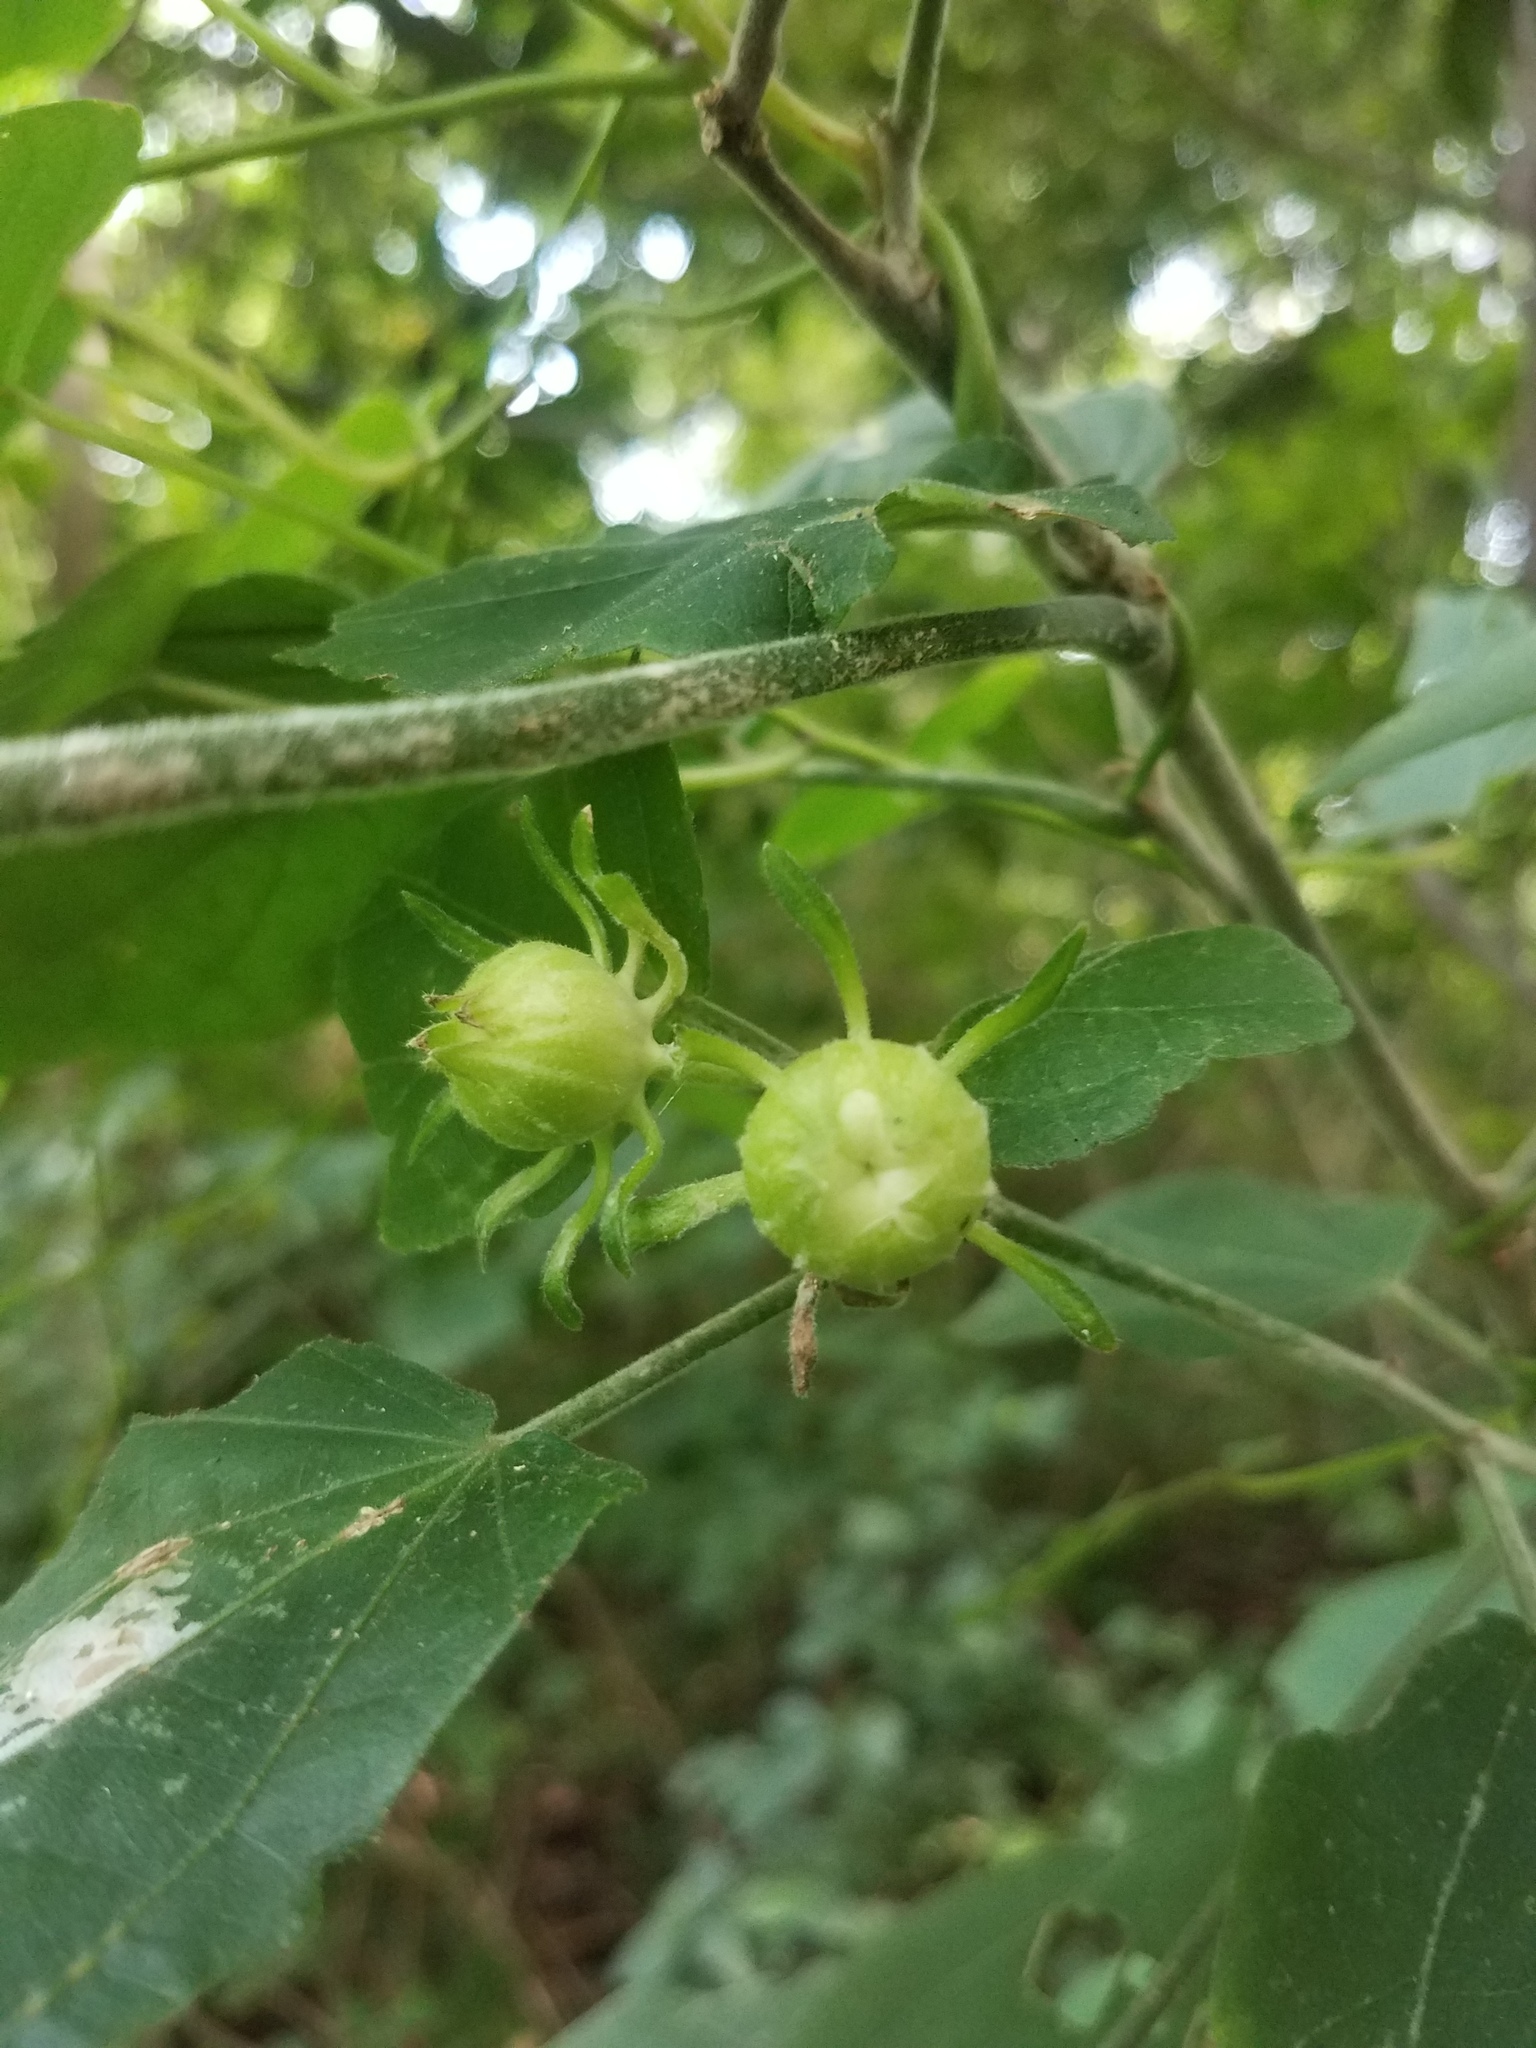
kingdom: Plantae
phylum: Tracheophyta
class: Magnoliopsida
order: Malvales
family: Malvaceae
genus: Malvaviscus
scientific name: Malvaviscus arboreus
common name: Wax mallow
